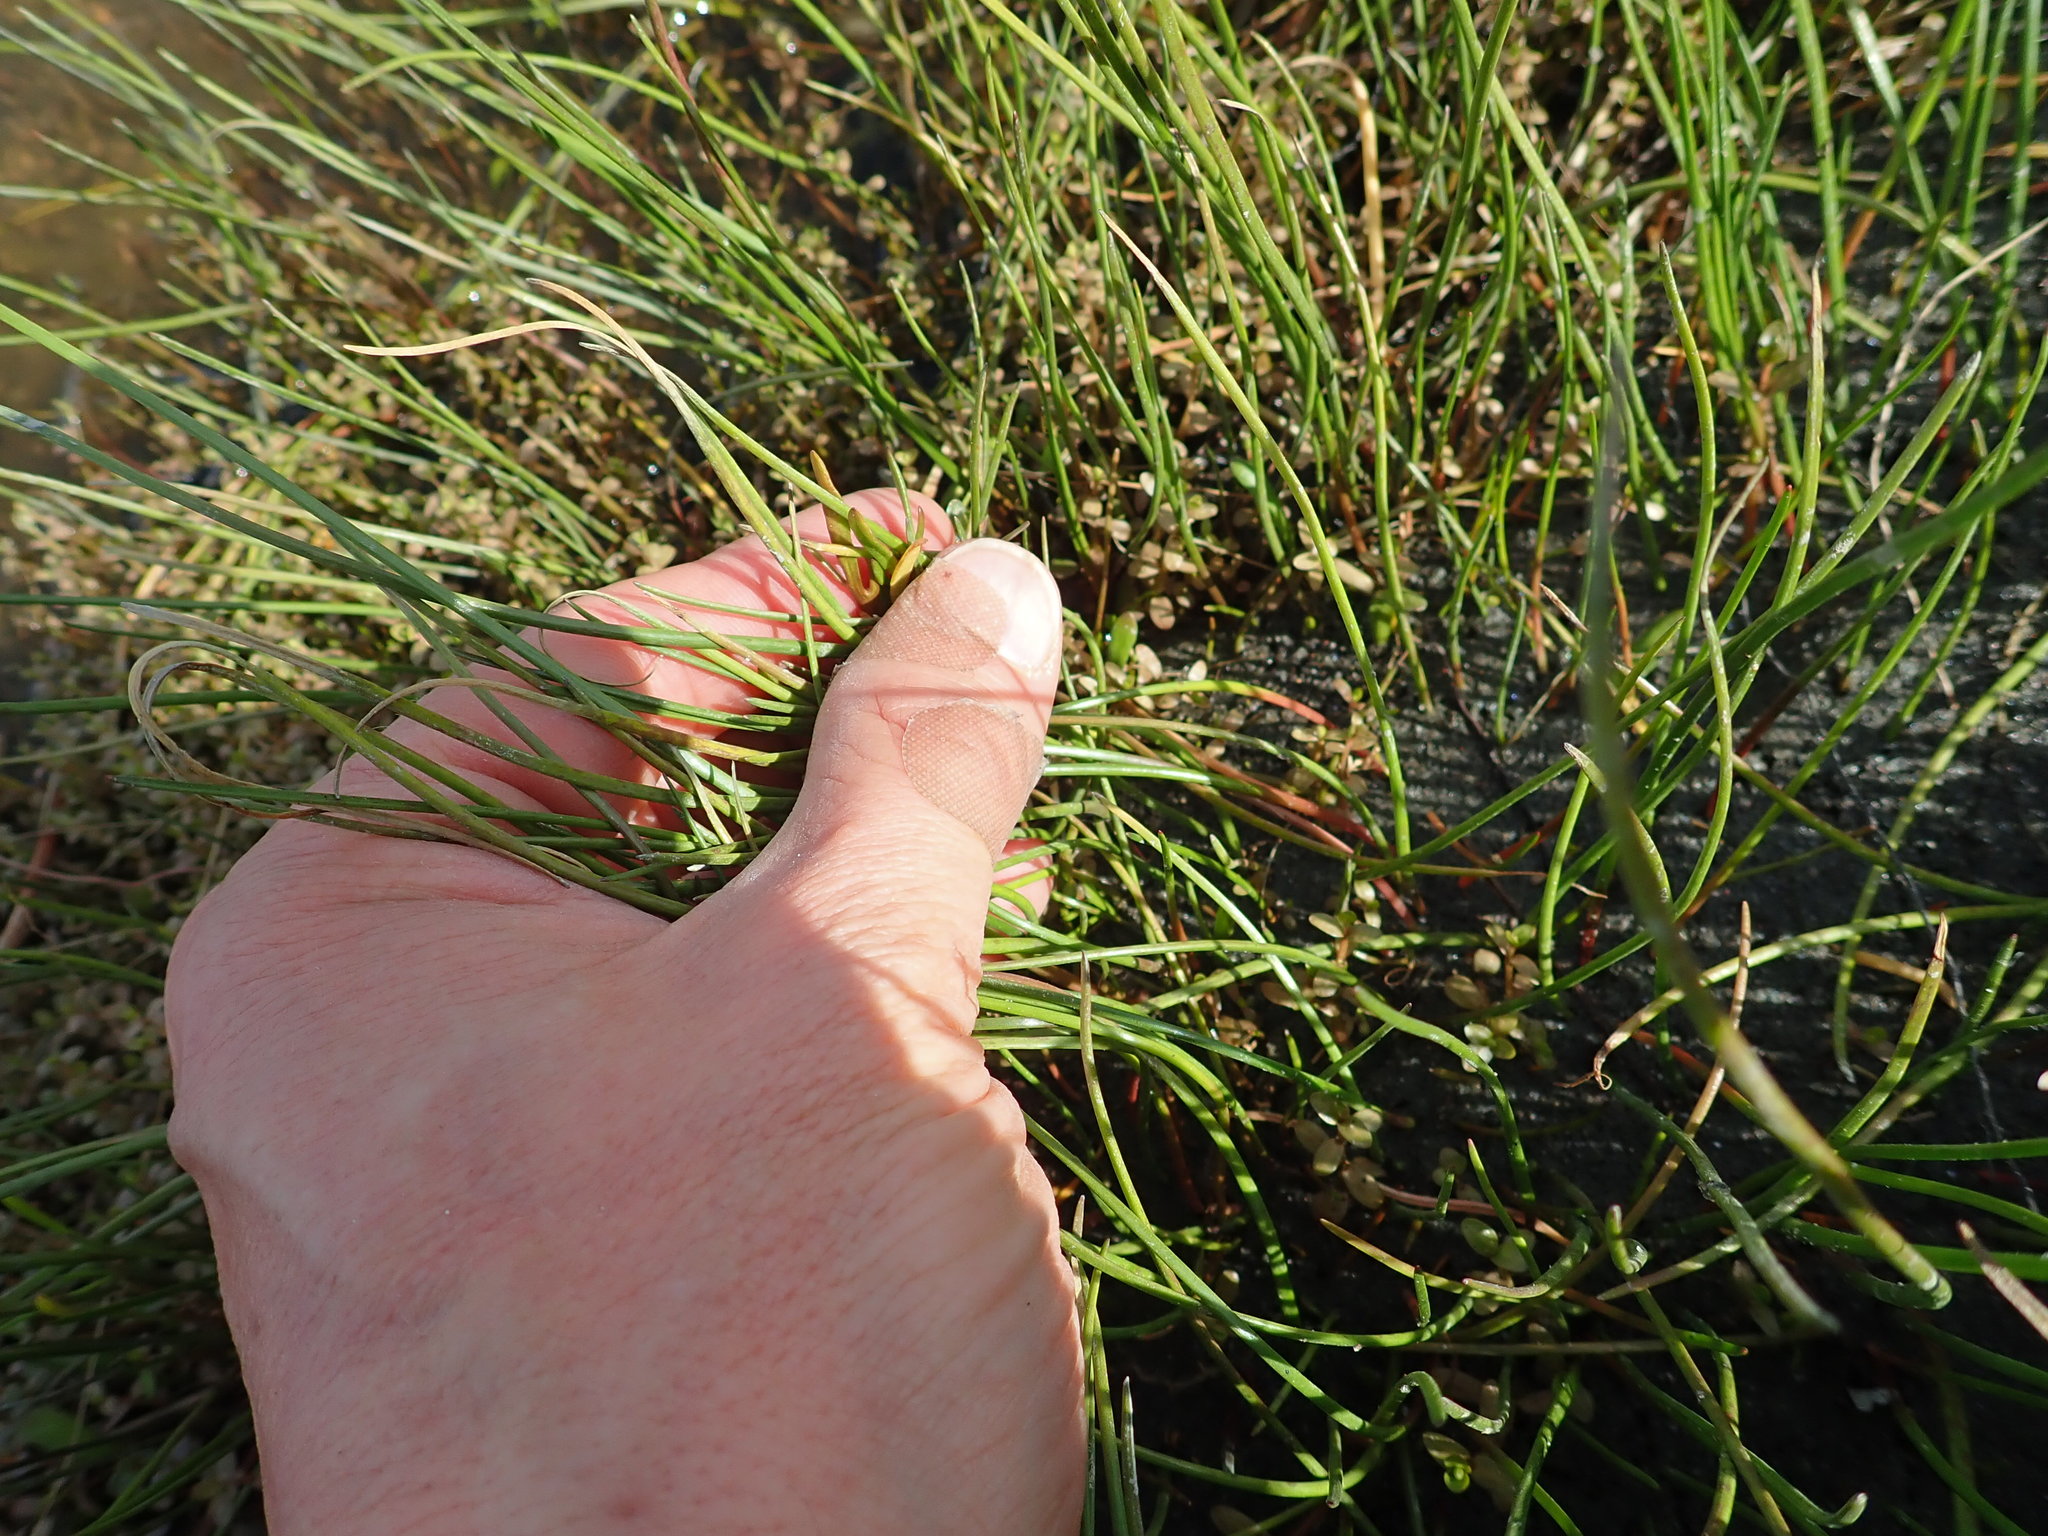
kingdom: Plantae
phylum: Tracheophyta
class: Liliopsida
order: Alismatales
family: Juncaginaceae
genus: Triglochin
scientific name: Triglochin striata
